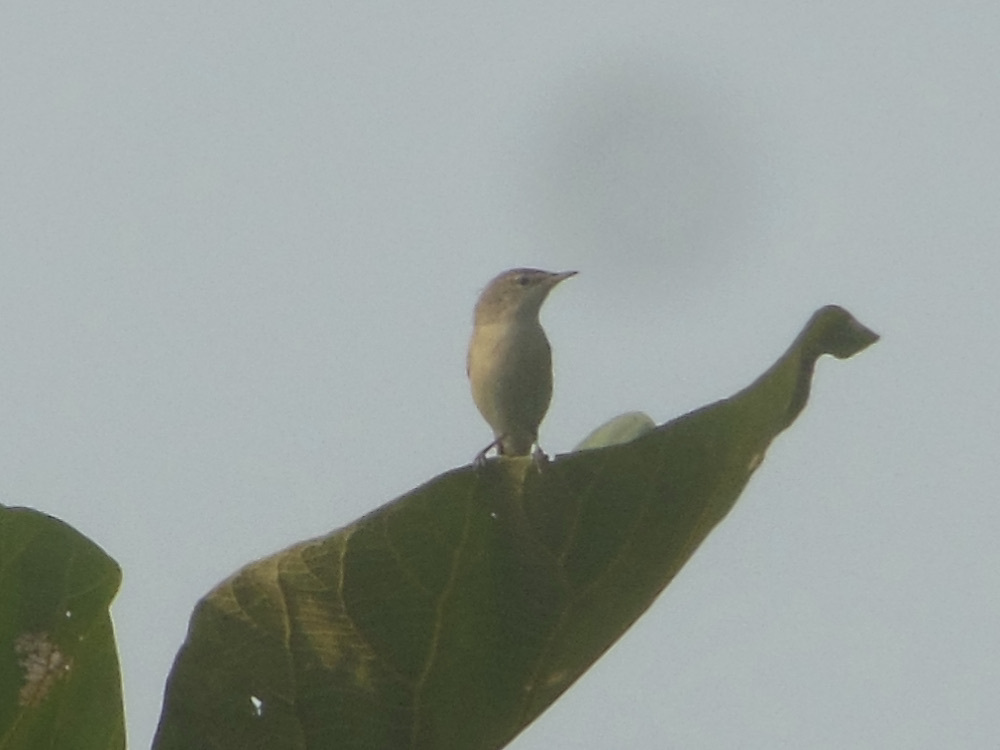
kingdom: Animalia
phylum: Chordata
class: Aves
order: Passeriformes
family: Acrocephalidae
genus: Acrocephalus
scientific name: Acrocephalus dumetorum
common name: Blyth's reed warbler
